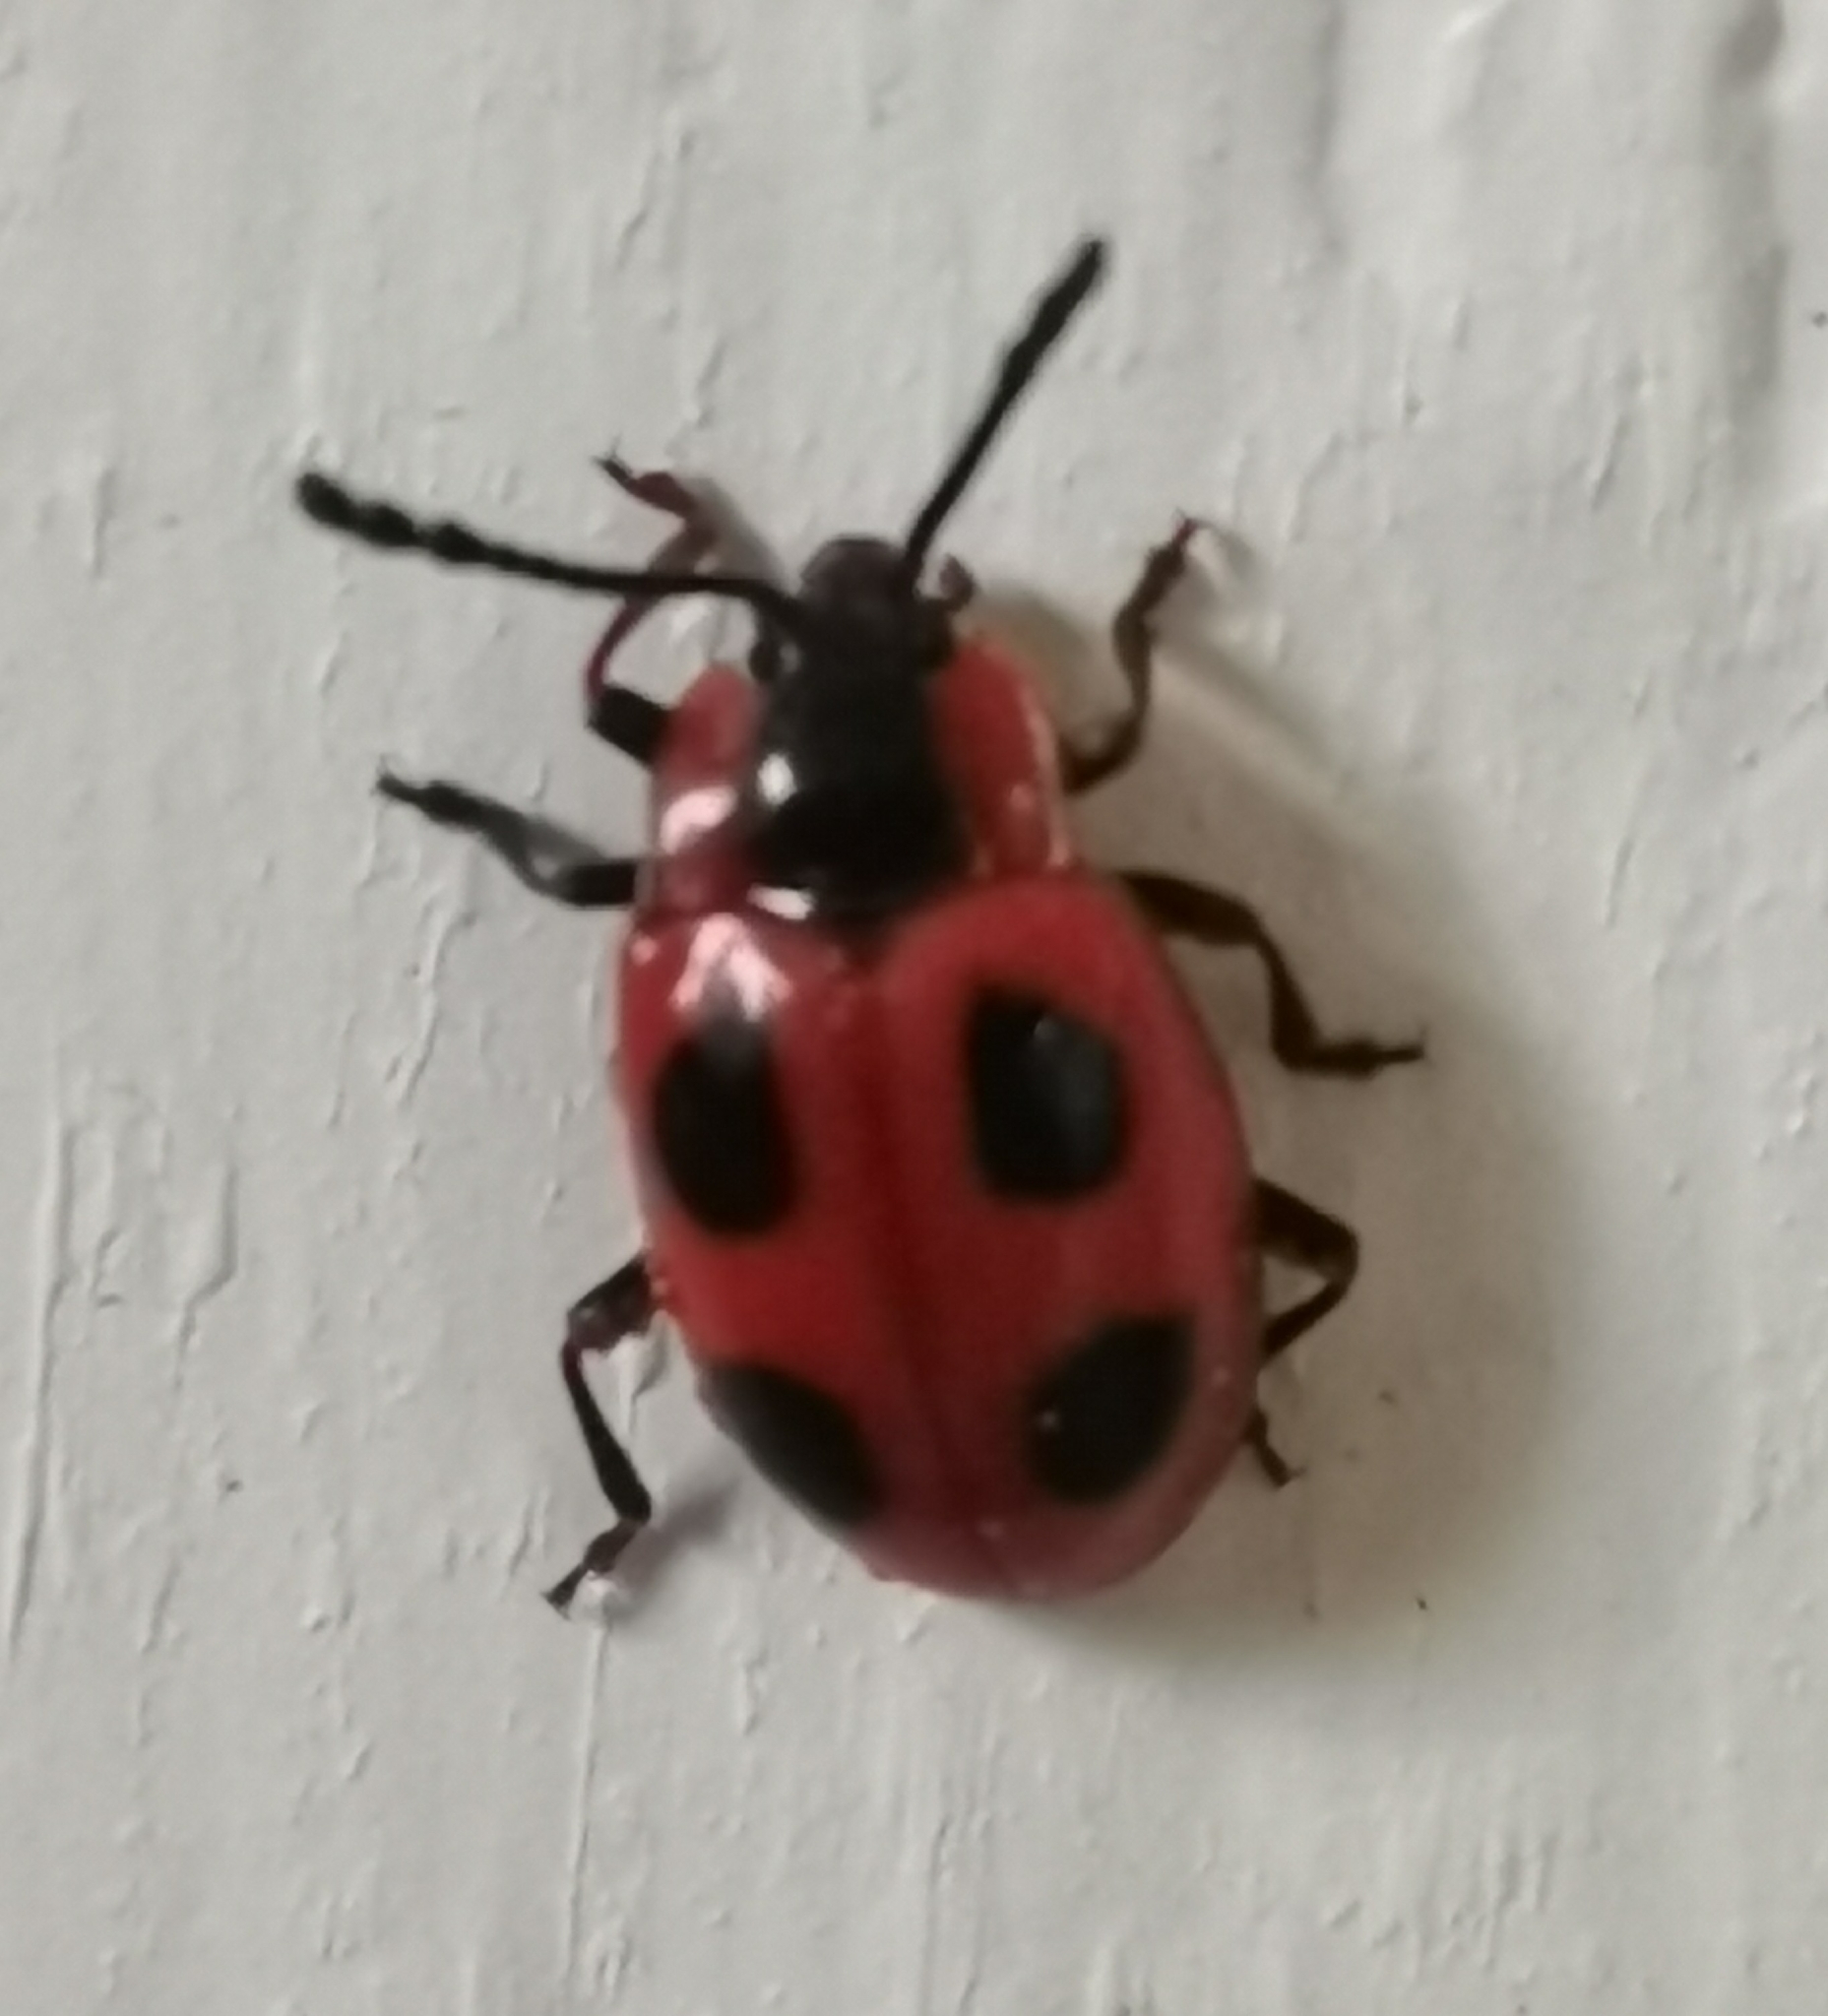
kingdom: Animalia
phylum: Arthropoda
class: Insecta
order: Coleoptera
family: Endomychidae
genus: Endomychus
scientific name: Endomychus coccineus
